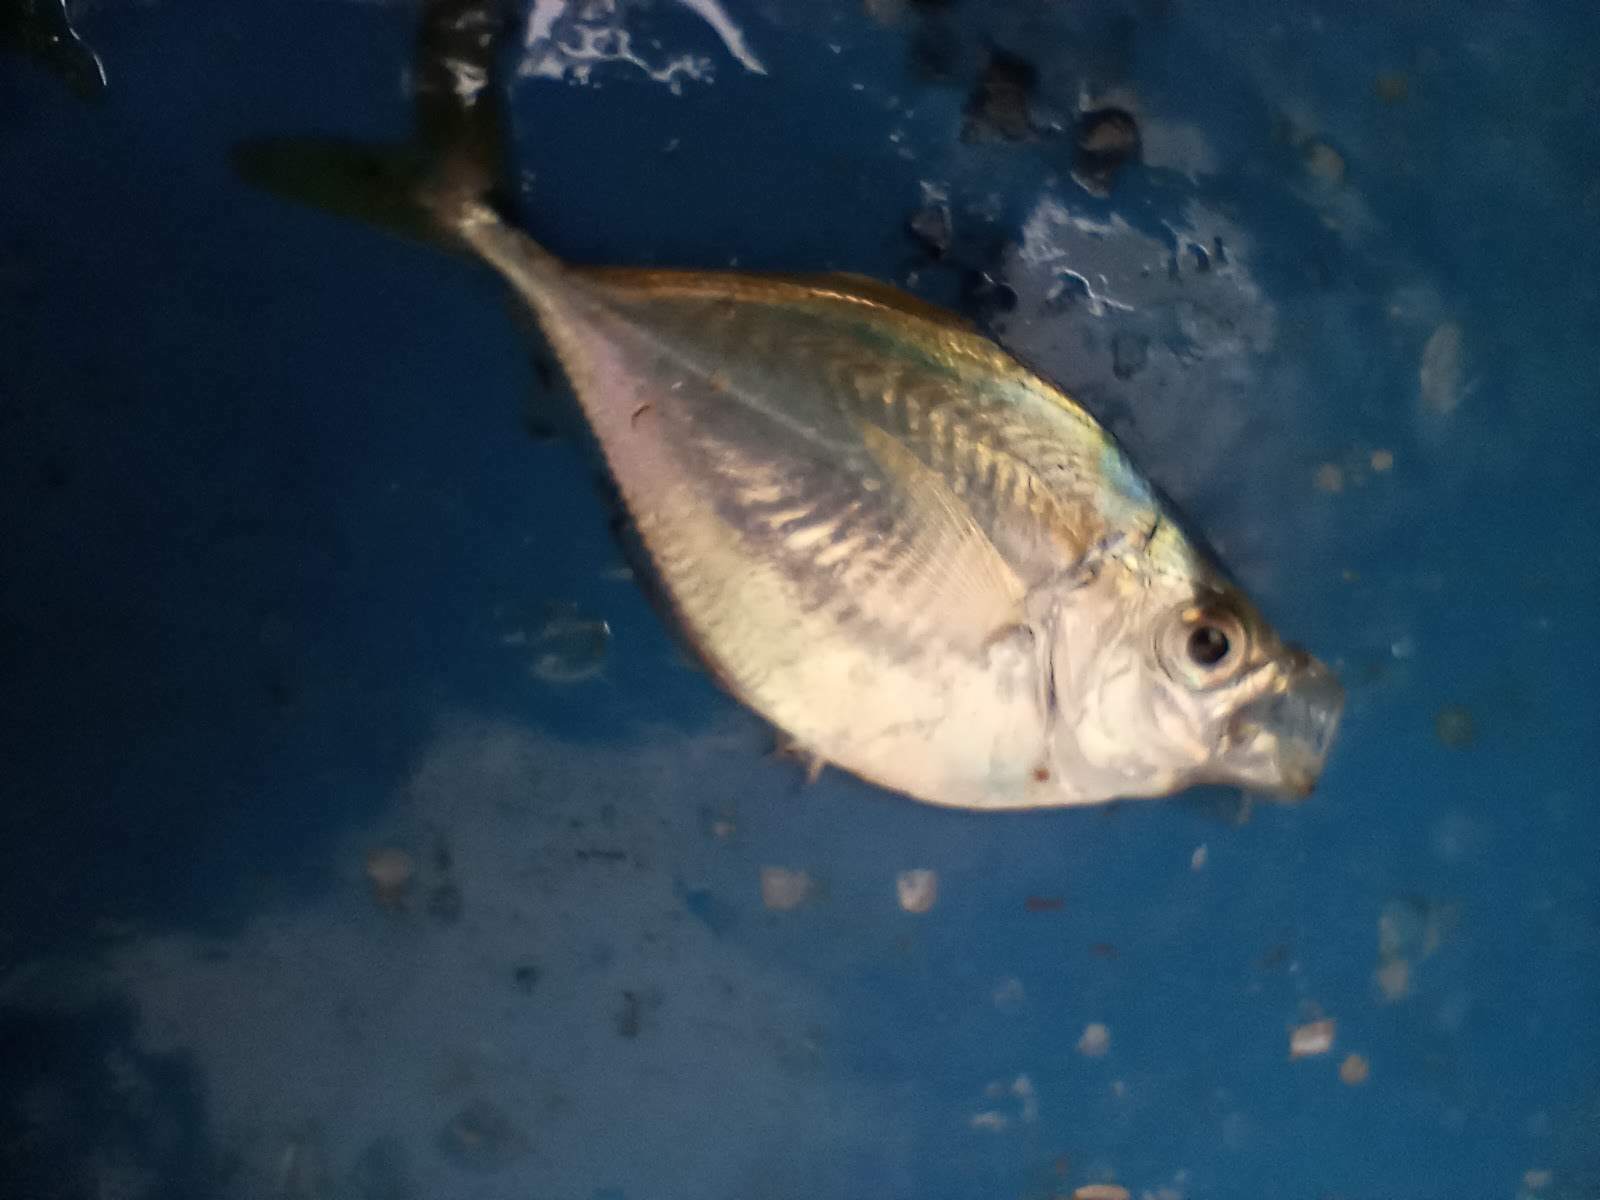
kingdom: Animalia
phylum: Chordata
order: Perciformes
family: Carangidae
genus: Chloroscombrus
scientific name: Chloroscombrus chrysurus
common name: Bumper
